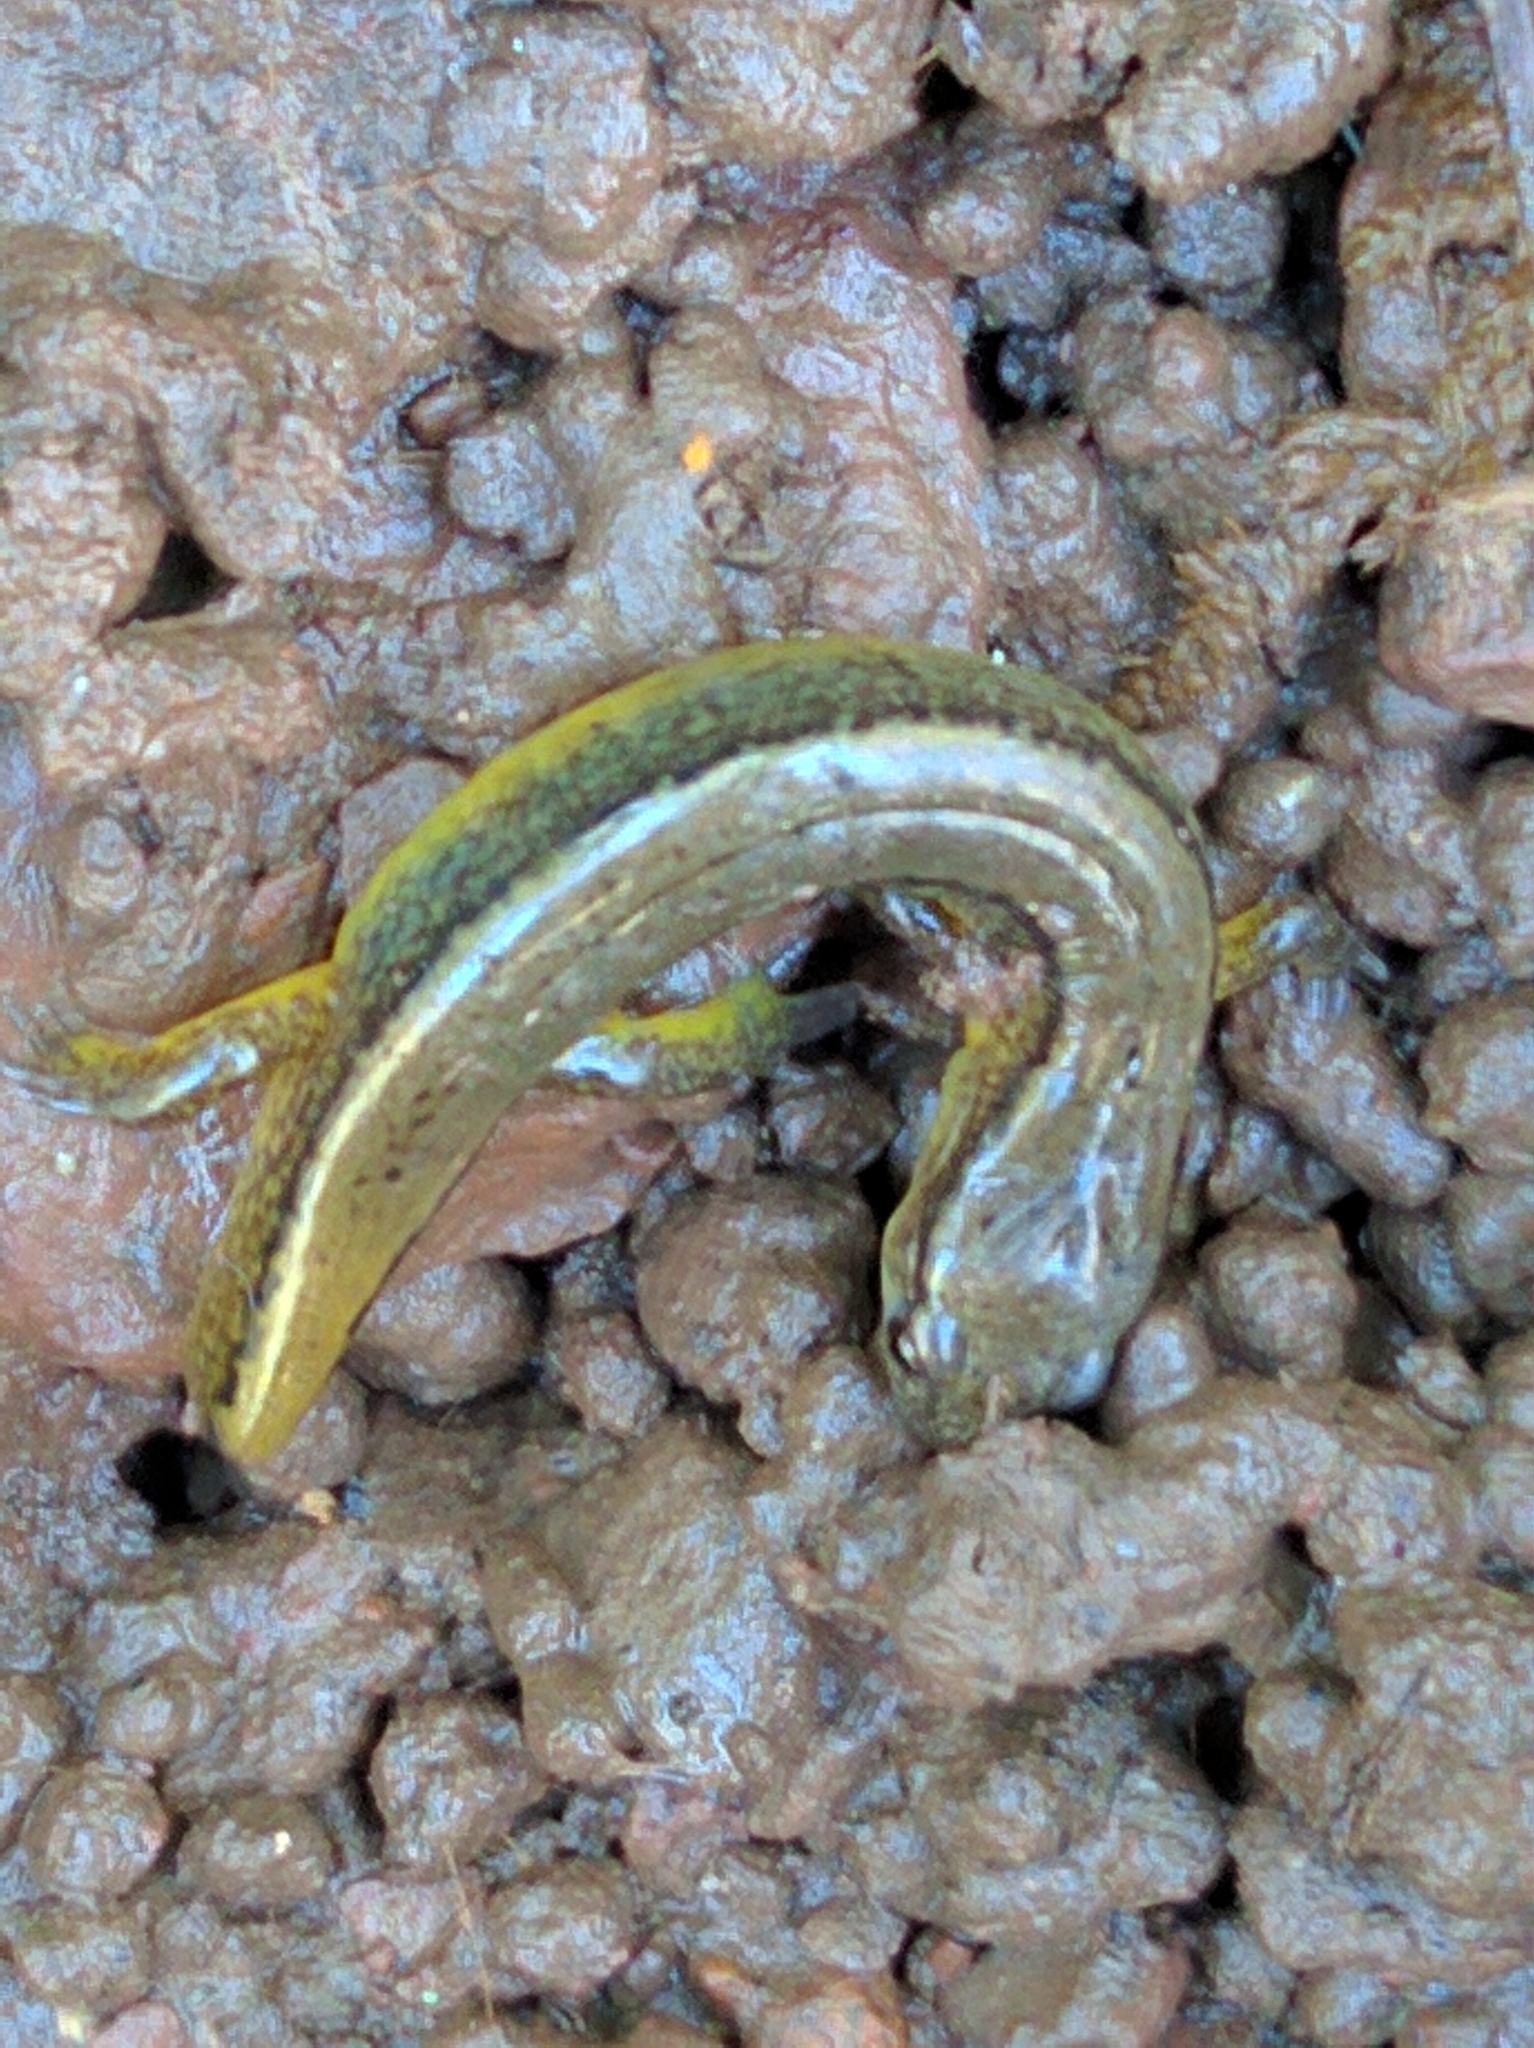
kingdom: Animalia
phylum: Chordata
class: Amphibia
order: Caudata
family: Plethodontidae
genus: Eurycea
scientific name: Eurycea bislineata
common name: Northern two-lined salamander
